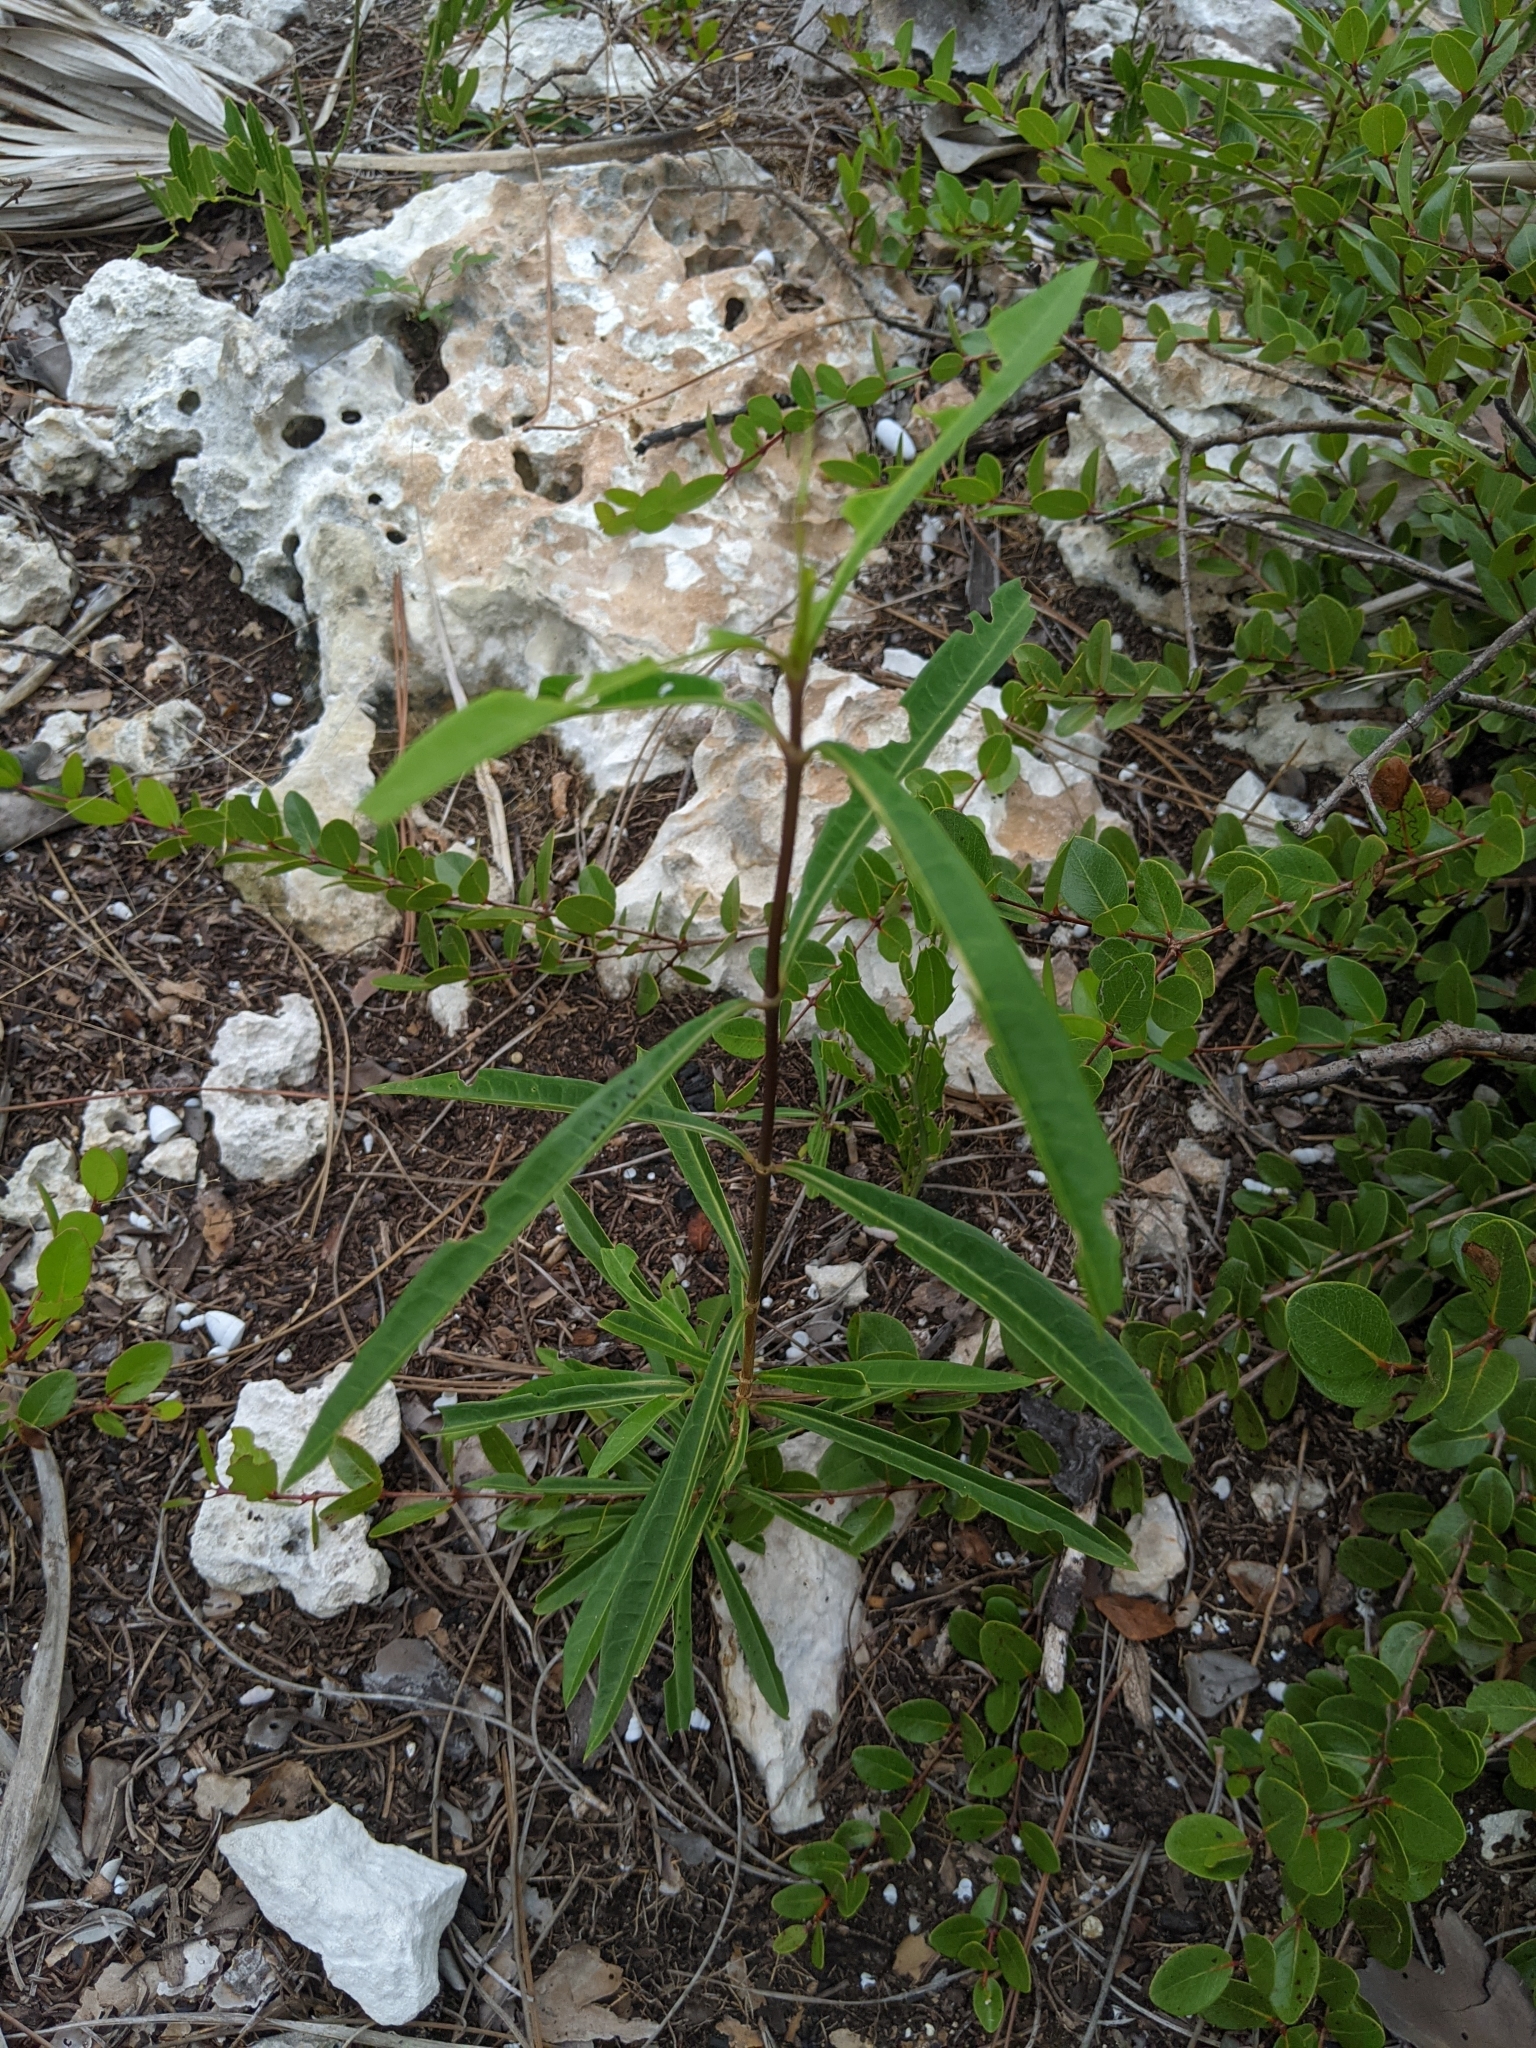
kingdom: Plantae
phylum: Tracheophyta
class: Magnoliopsida
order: Gentianales
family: Rubiaceae
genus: Morinda
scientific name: Morinda royoc
